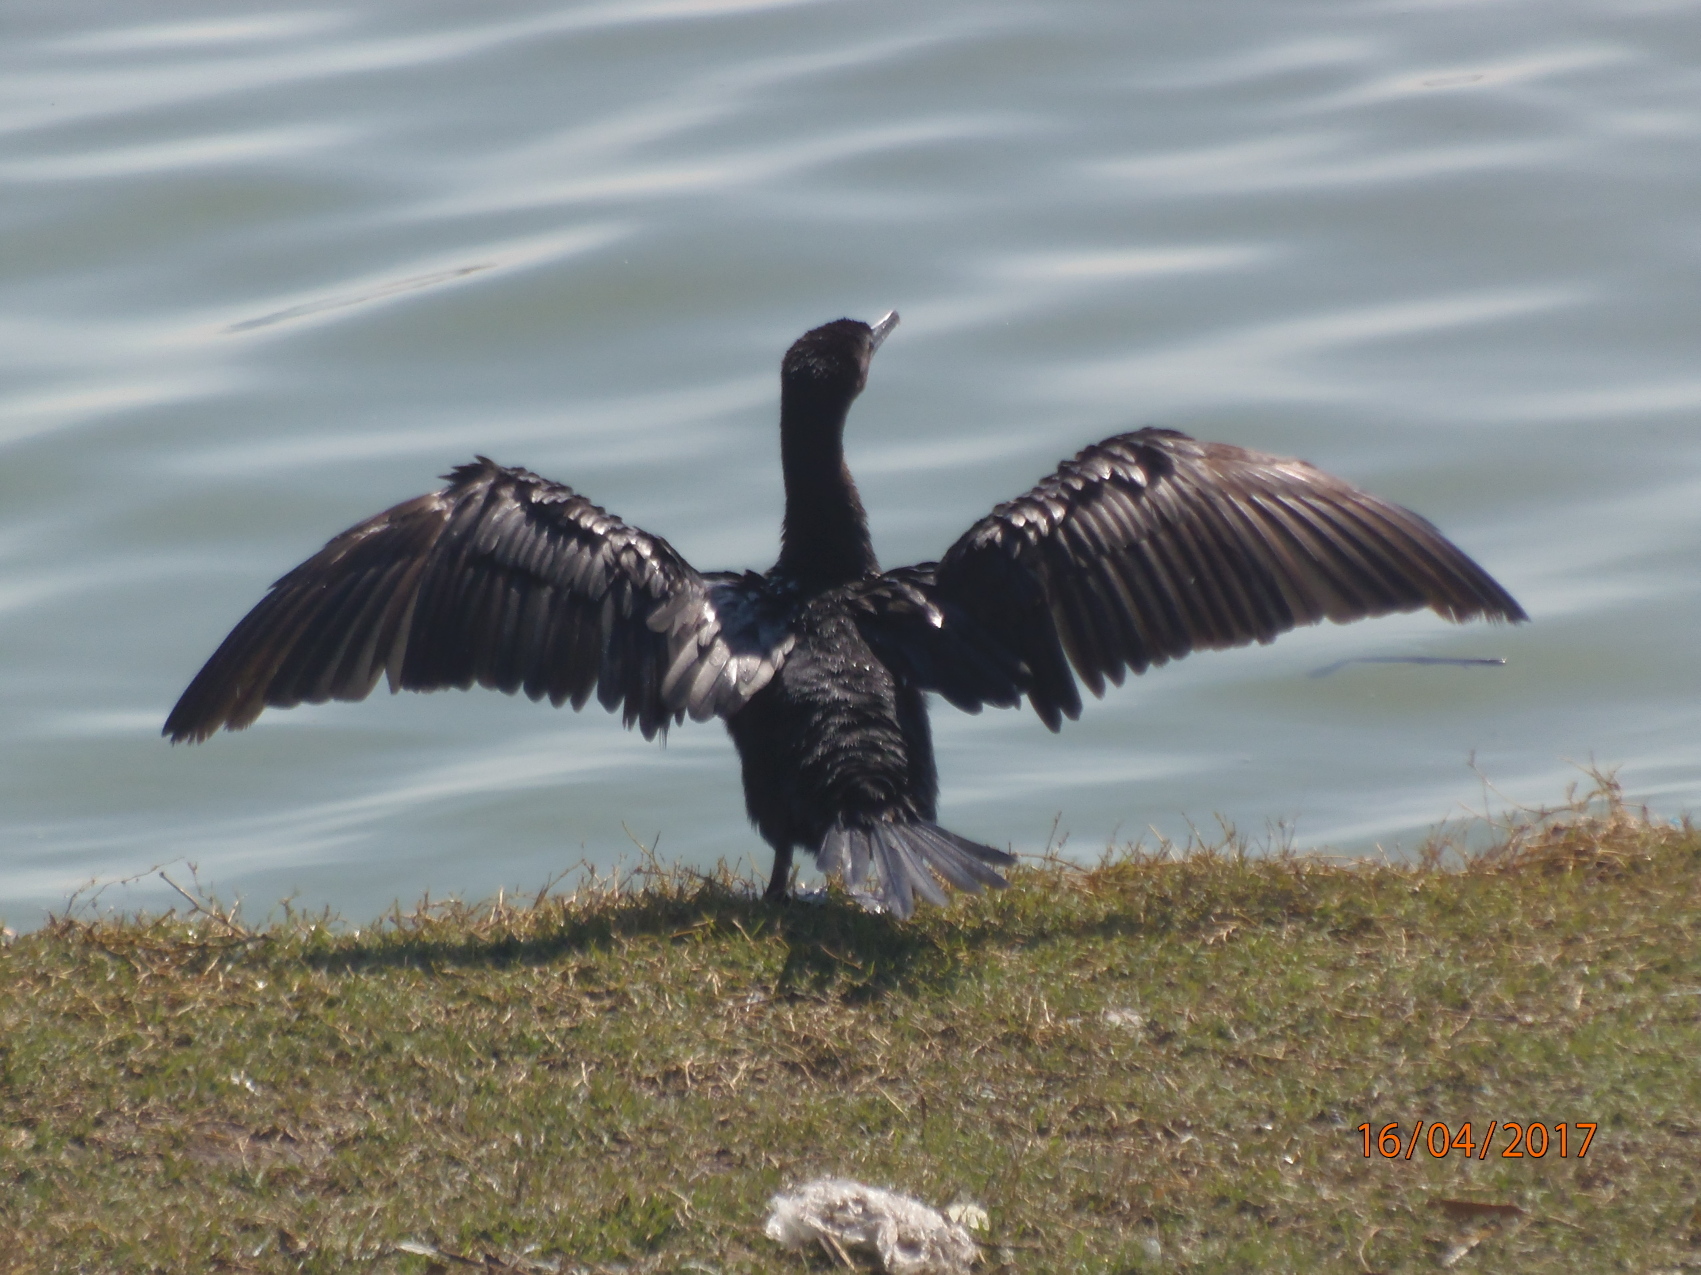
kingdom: Animalia
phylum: Chordata
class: Aves
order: Suliformes
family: Phalacrocoracidae
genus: Phalacrocorax
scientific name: Phalacrocorax brasilianus
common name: Neotropic cormorant
